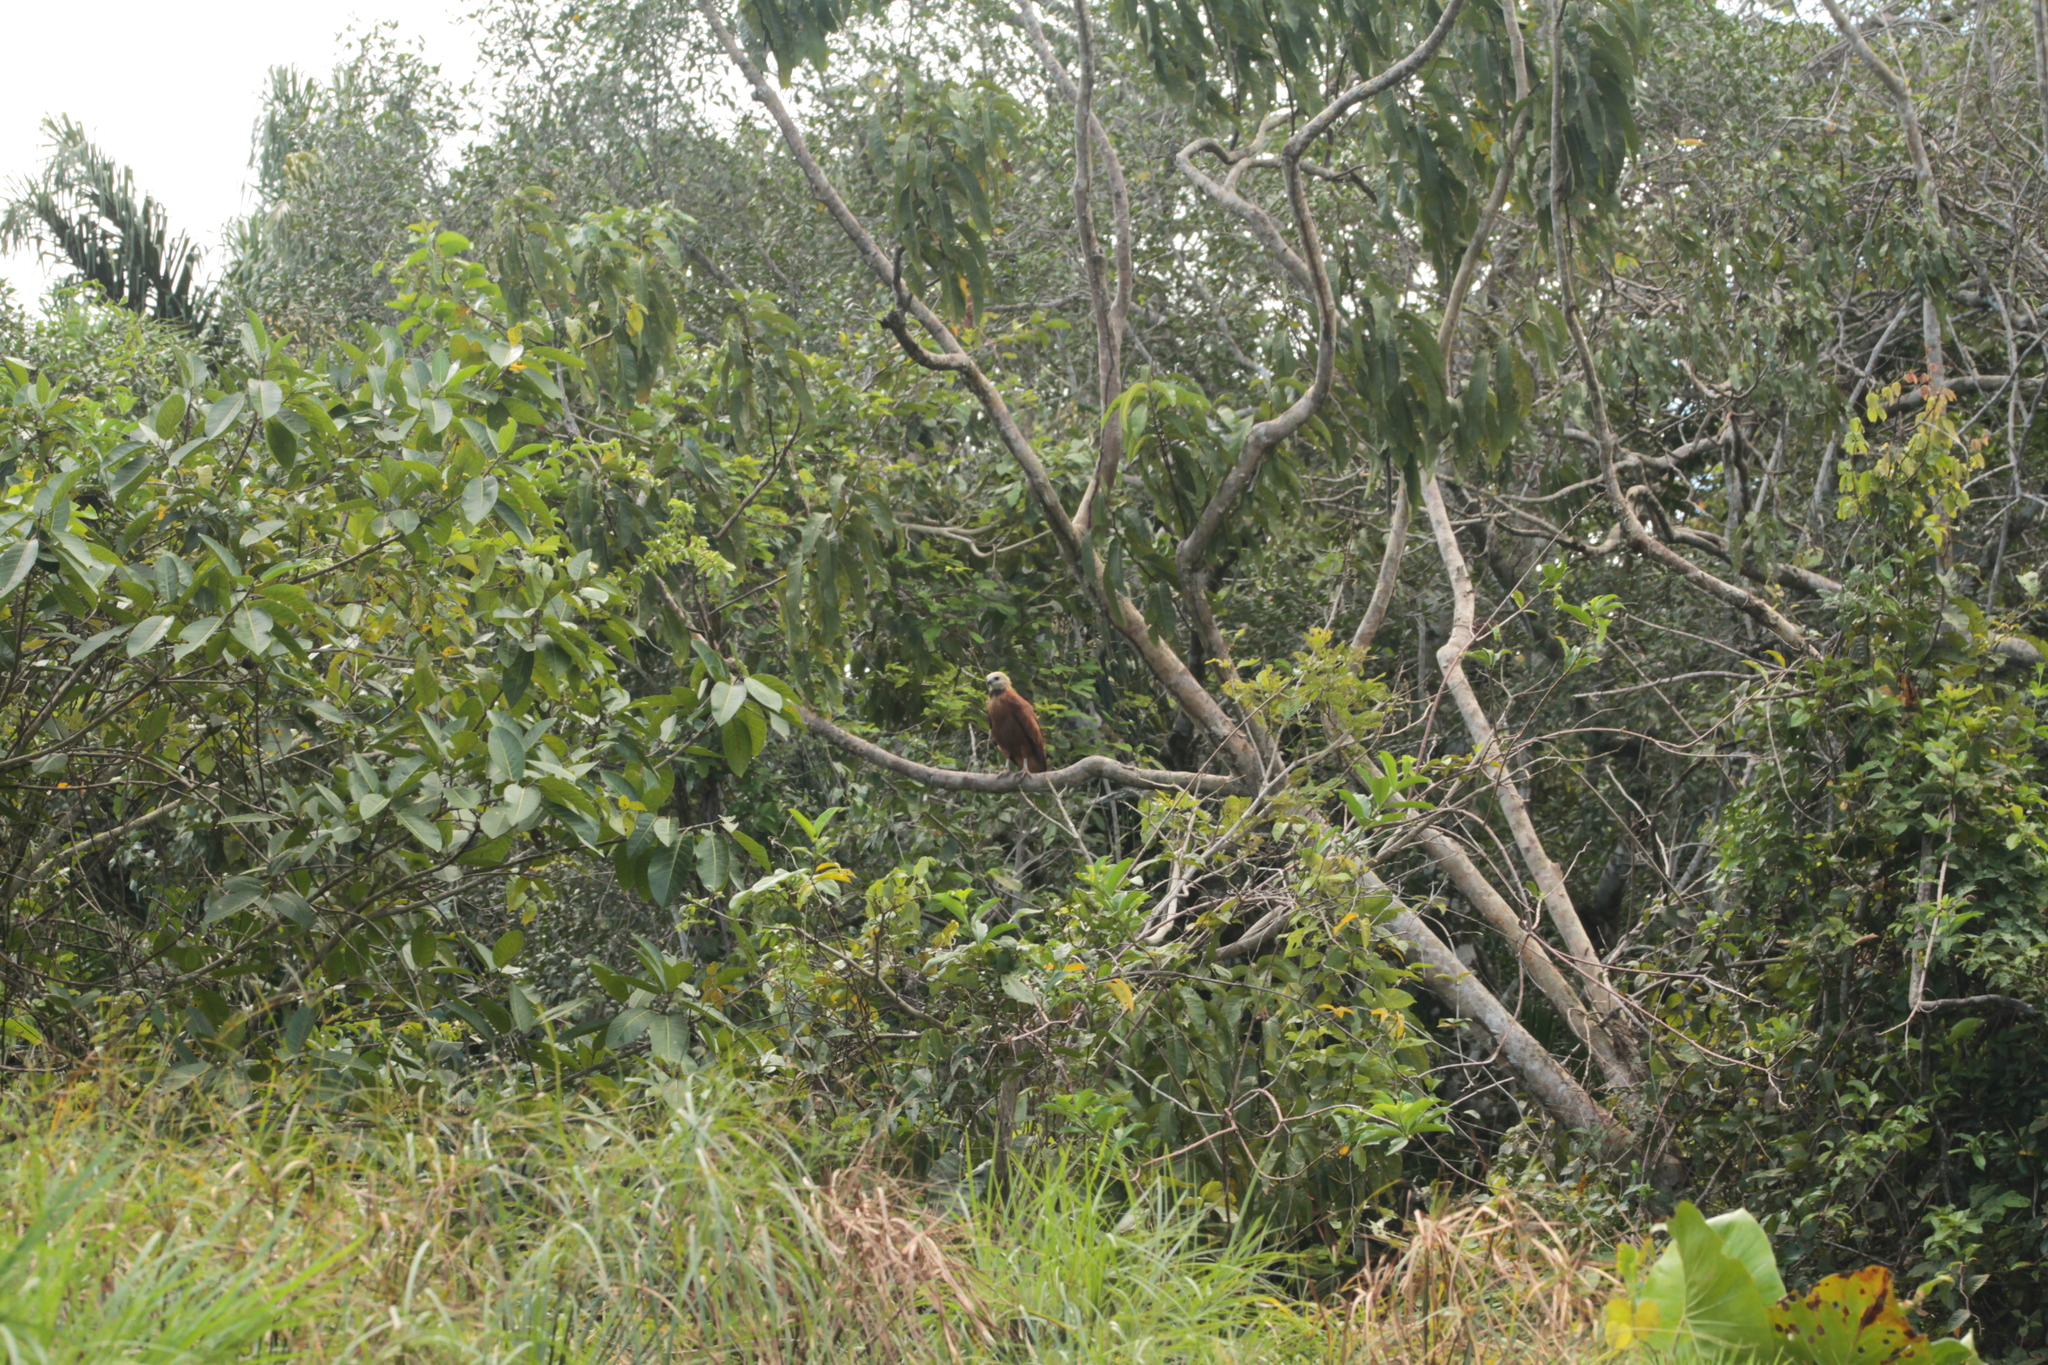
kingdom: Animalia
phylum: Chordata
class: Aves
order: Accipitriformes
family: Accipitridae
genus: Busarellus
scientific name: Busarellus nigricollis
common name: Black-collared hawk
